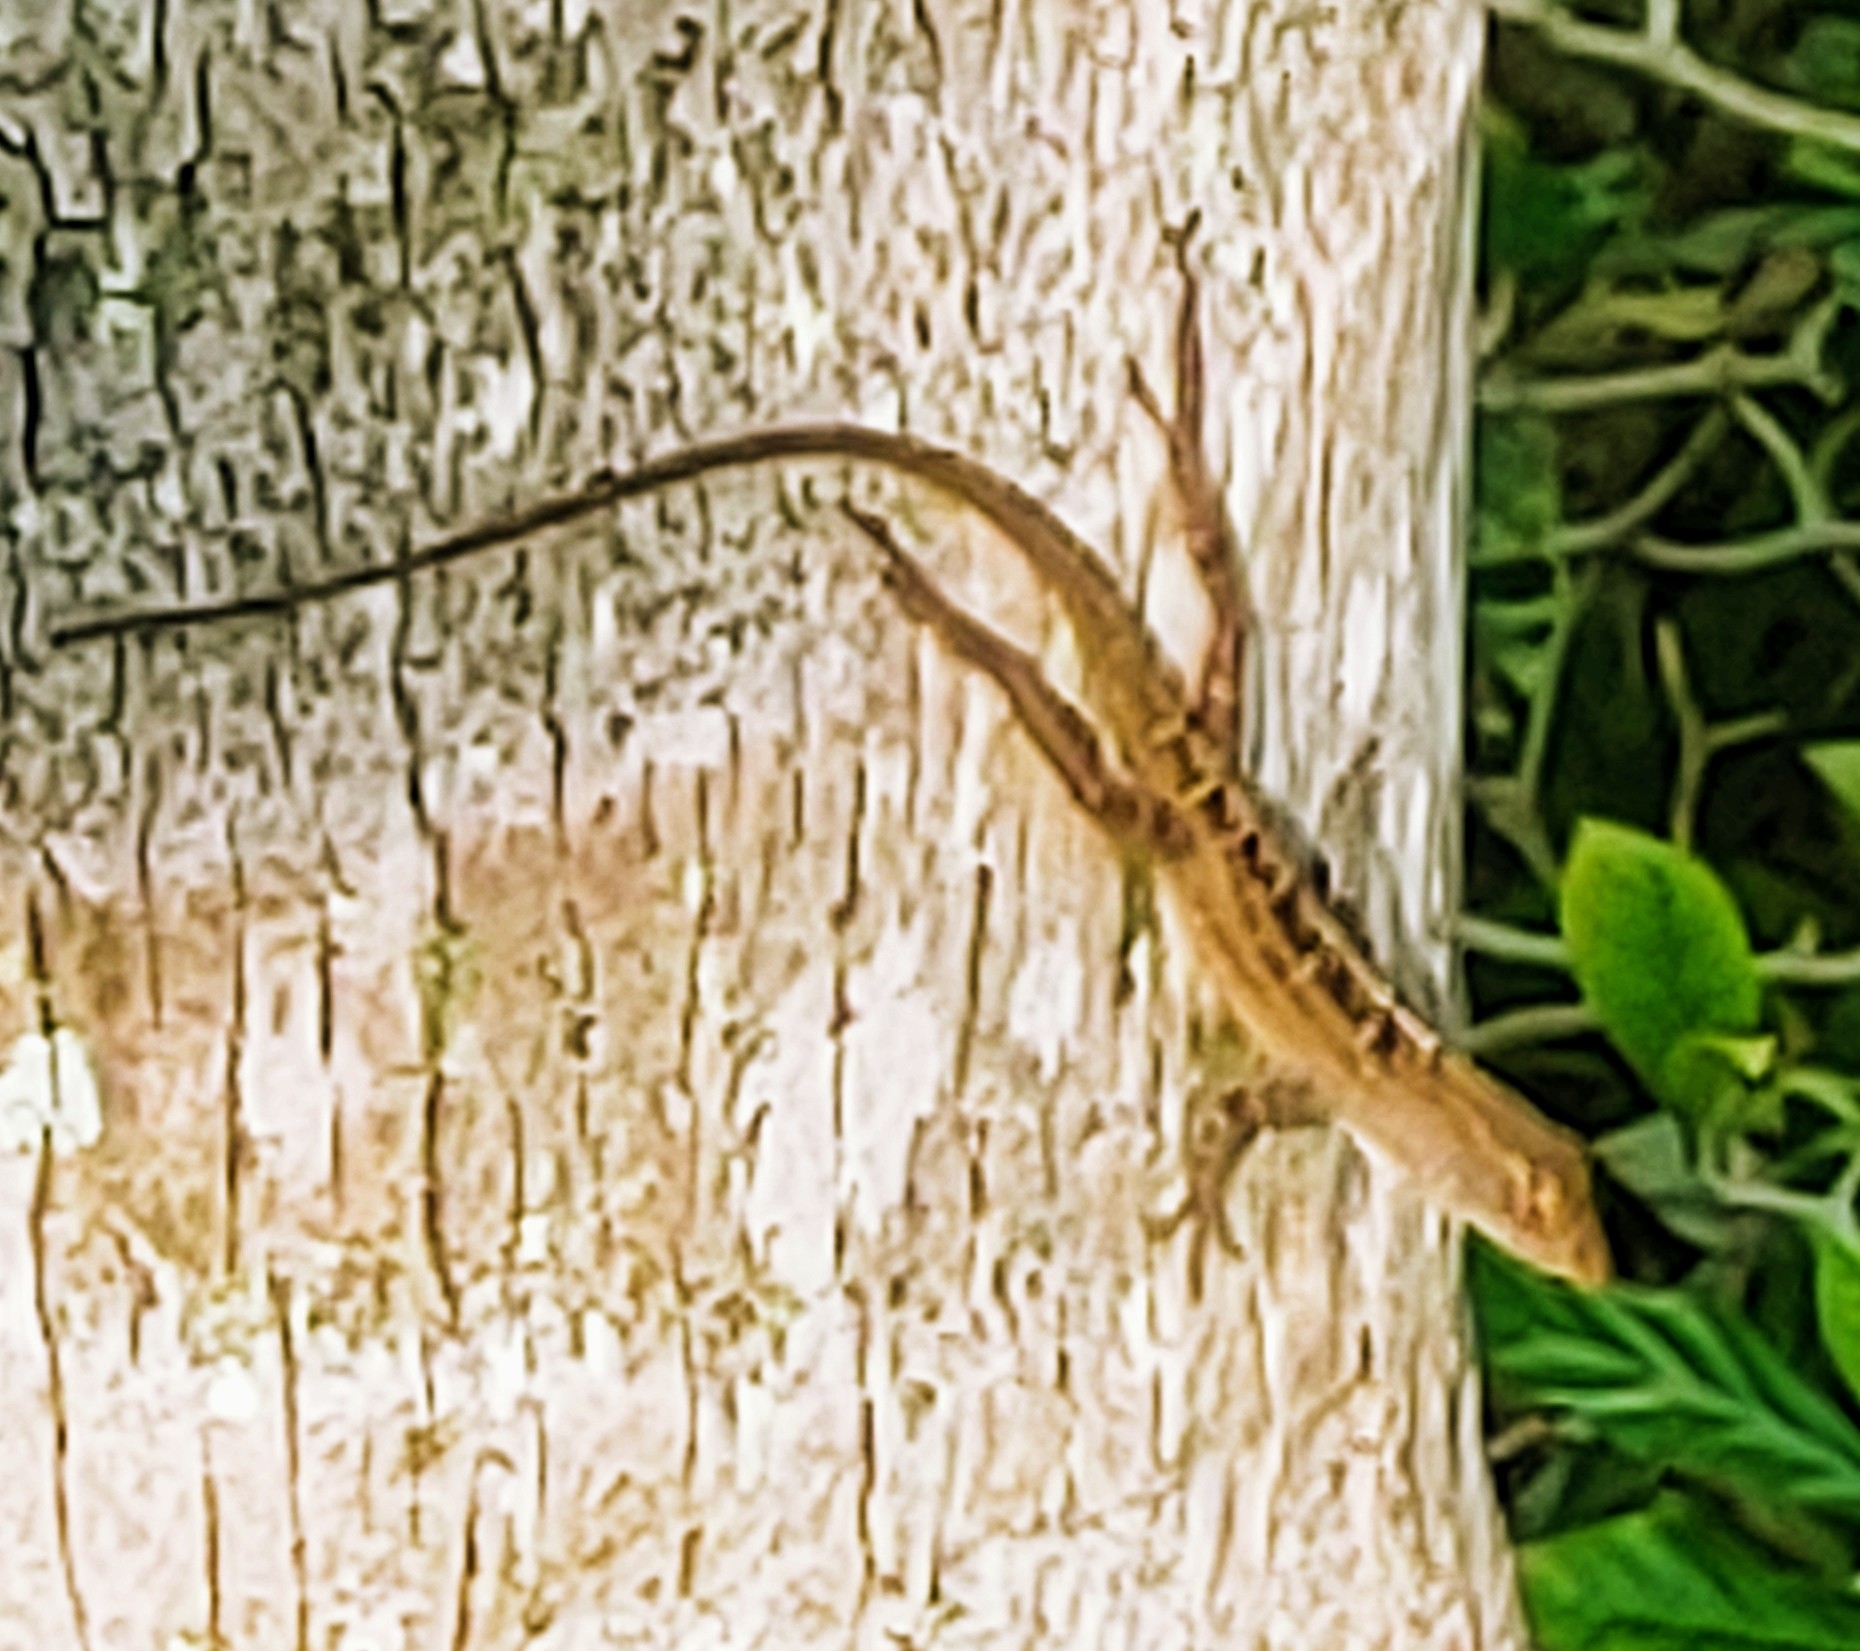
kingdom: Animalia
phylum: Chordata
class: Squamata
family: Dactyloidae
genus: Anolis
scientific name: Anolis sagrei
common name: Brown anole
